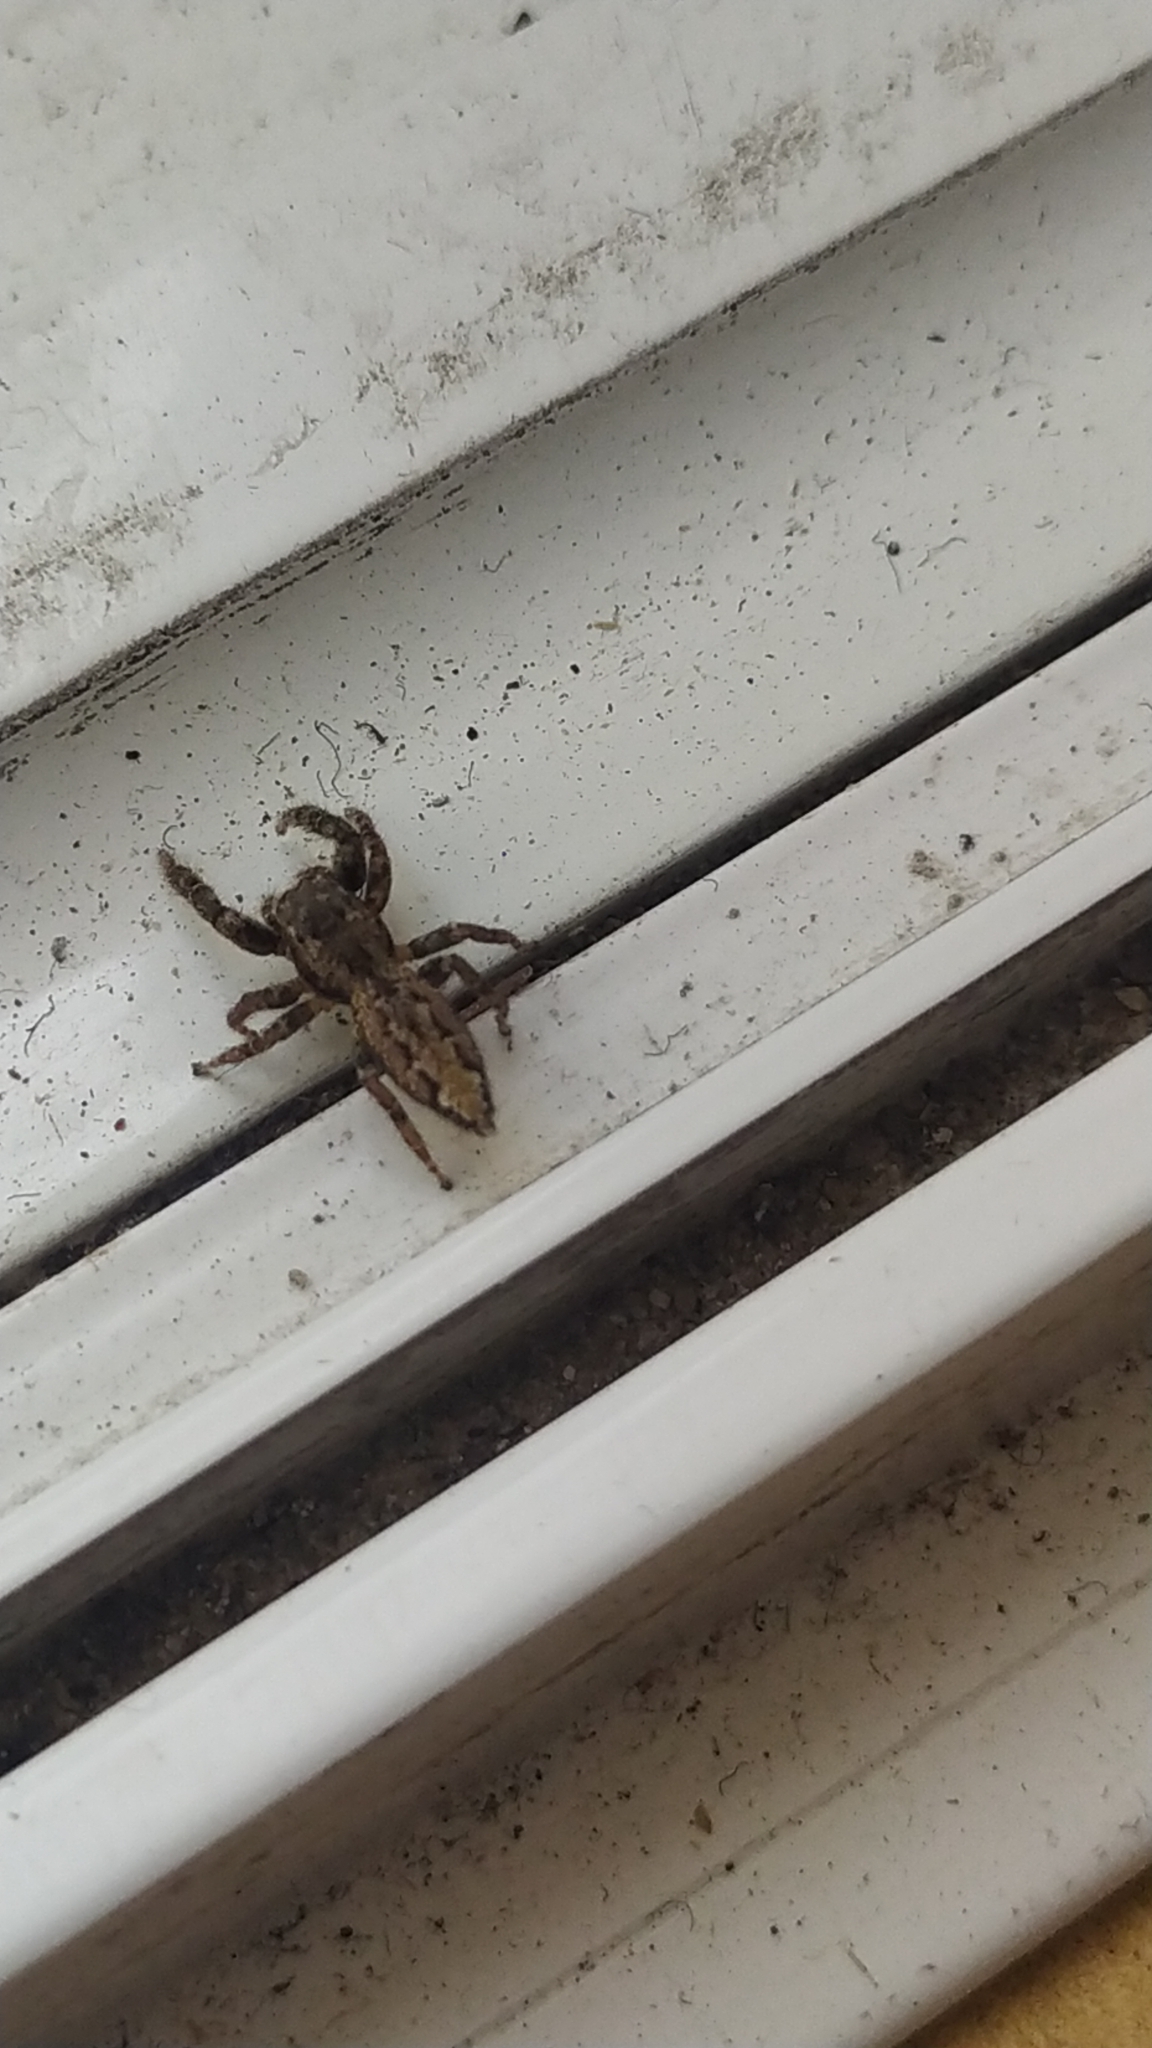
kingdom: Animalia
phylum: Arthropoda
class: Arachnida
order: Araneae
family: Salticidae
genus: Marpissa
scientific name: Marpissa muscosa
